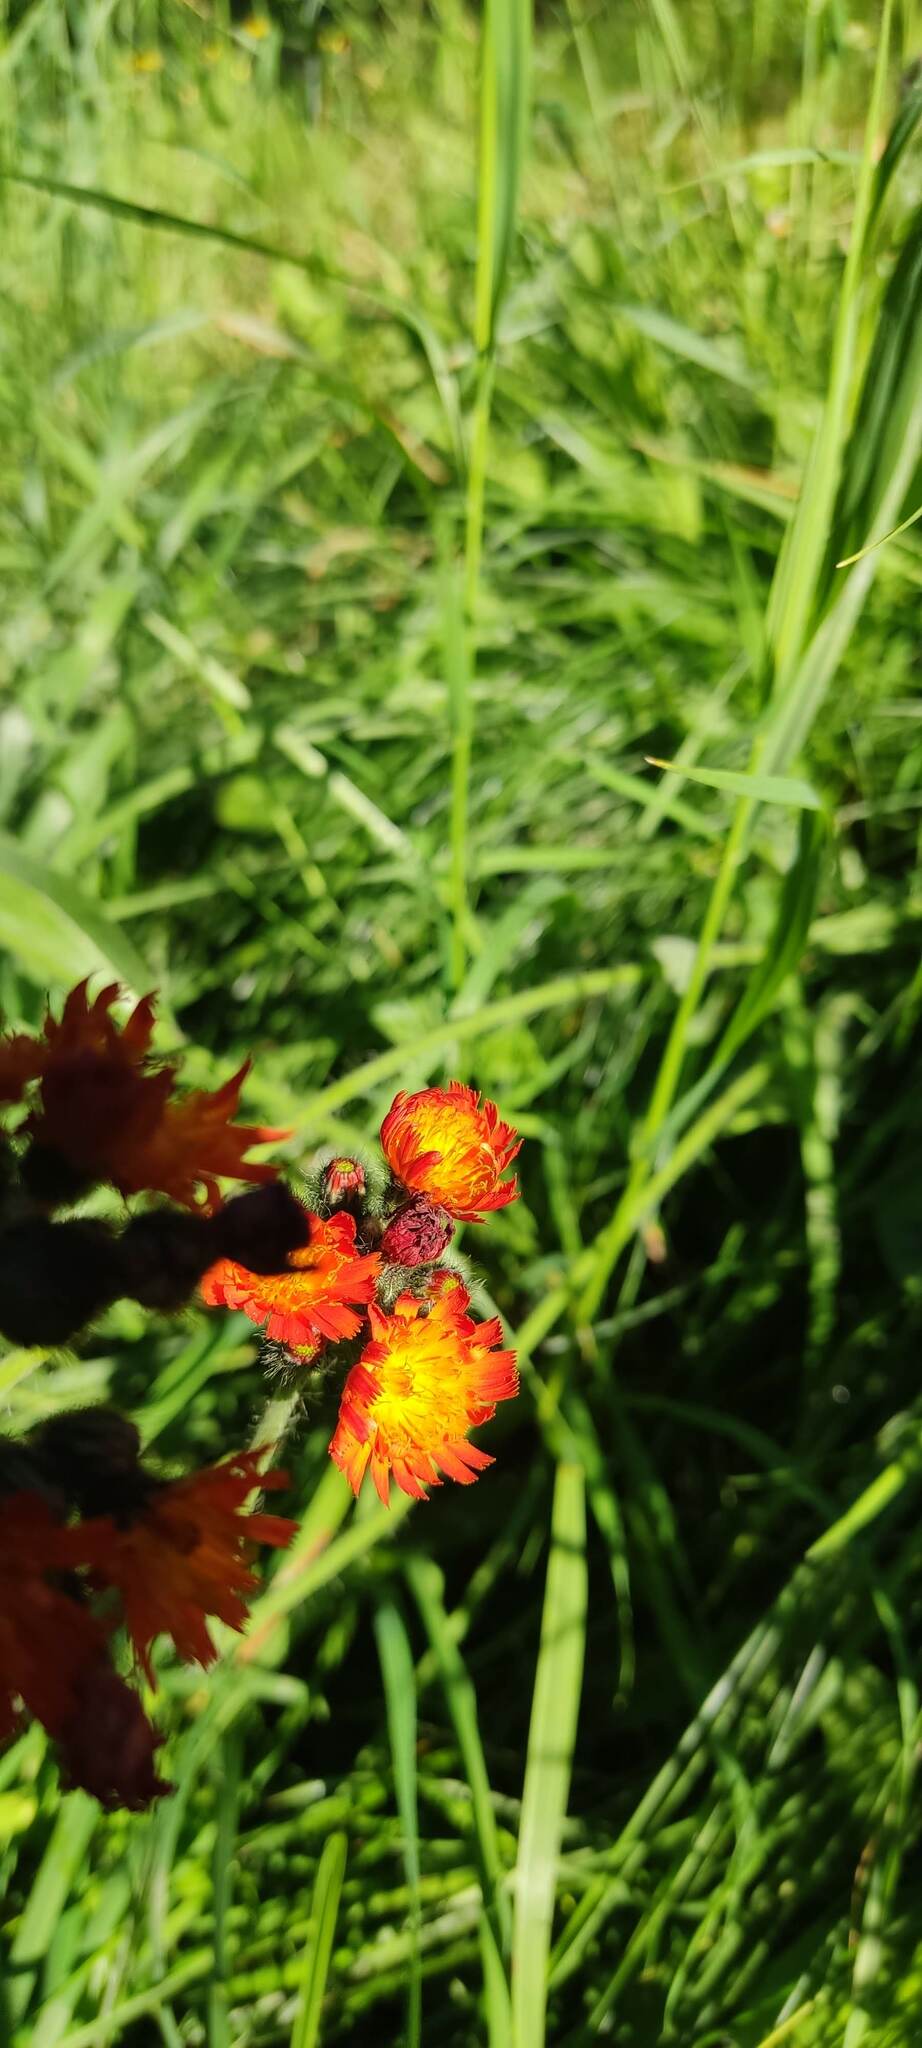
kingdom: Plantae
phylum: Tracheophyta
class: Magnoliopsida
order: Asterales
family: Asteraceae
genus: Pilosella
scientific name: Pilosella aurantiaca
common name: Fox-and-cubs
